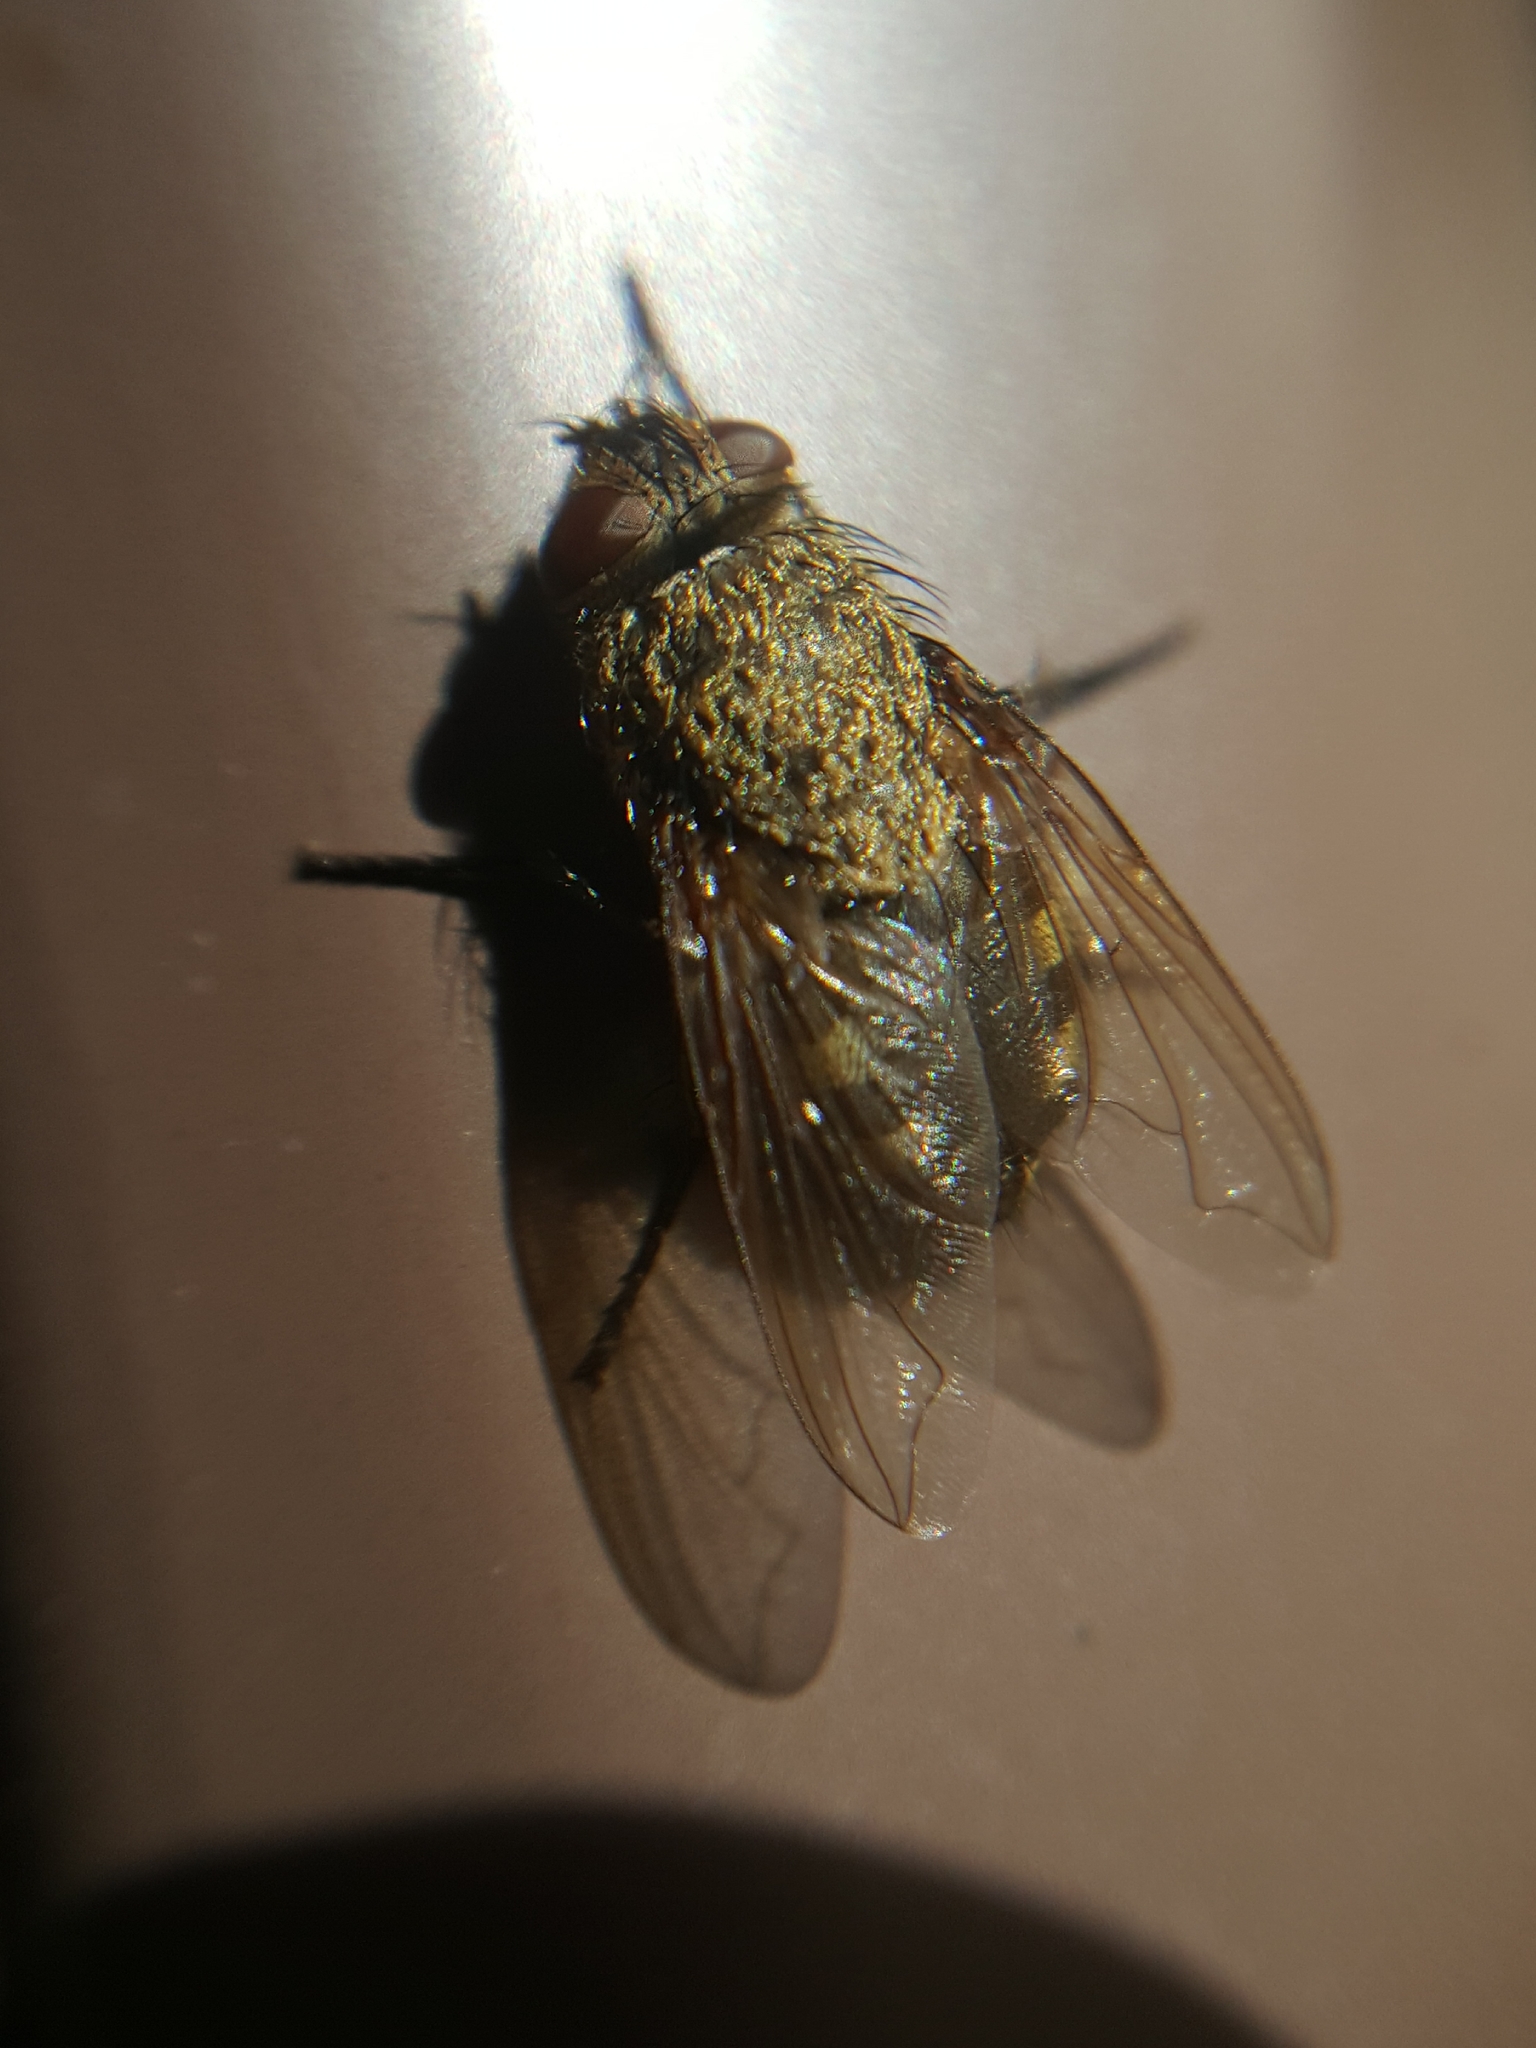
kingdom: Animalia
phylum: Arthropoda
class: Insecta
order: Diptera
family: Polleniidae
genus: Pollenia
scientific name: Pollenia
